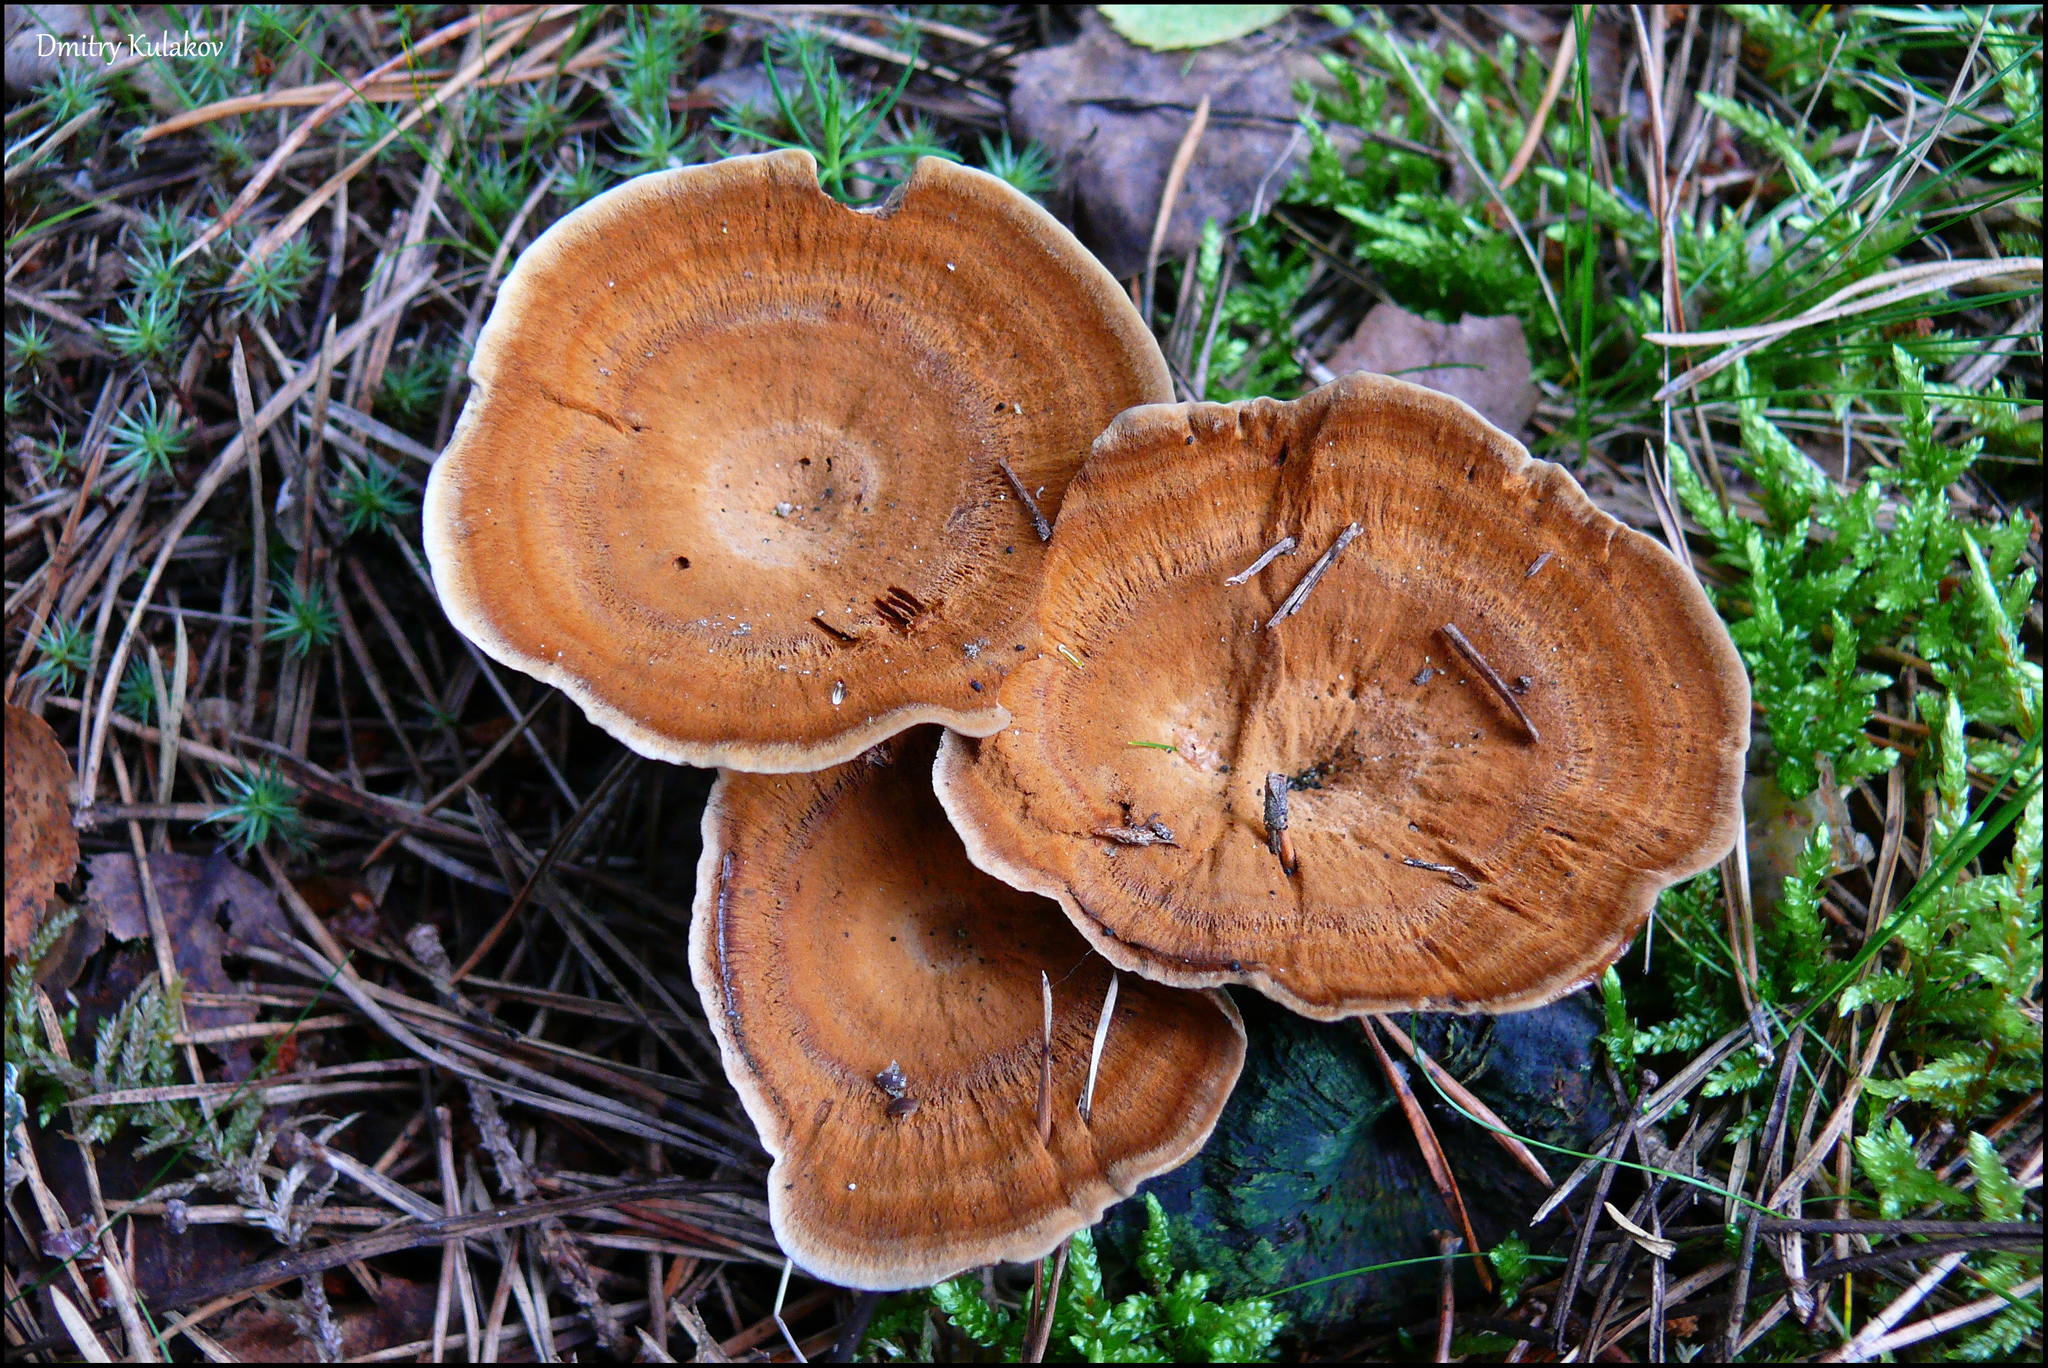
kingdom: Fungi
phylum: Basidiomycota
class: Agaricomycetes
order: Hymenochaetales
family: Hymenochaetaceae
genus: Coltricia
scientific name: Coltricia perennis
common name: Tiger's eye
